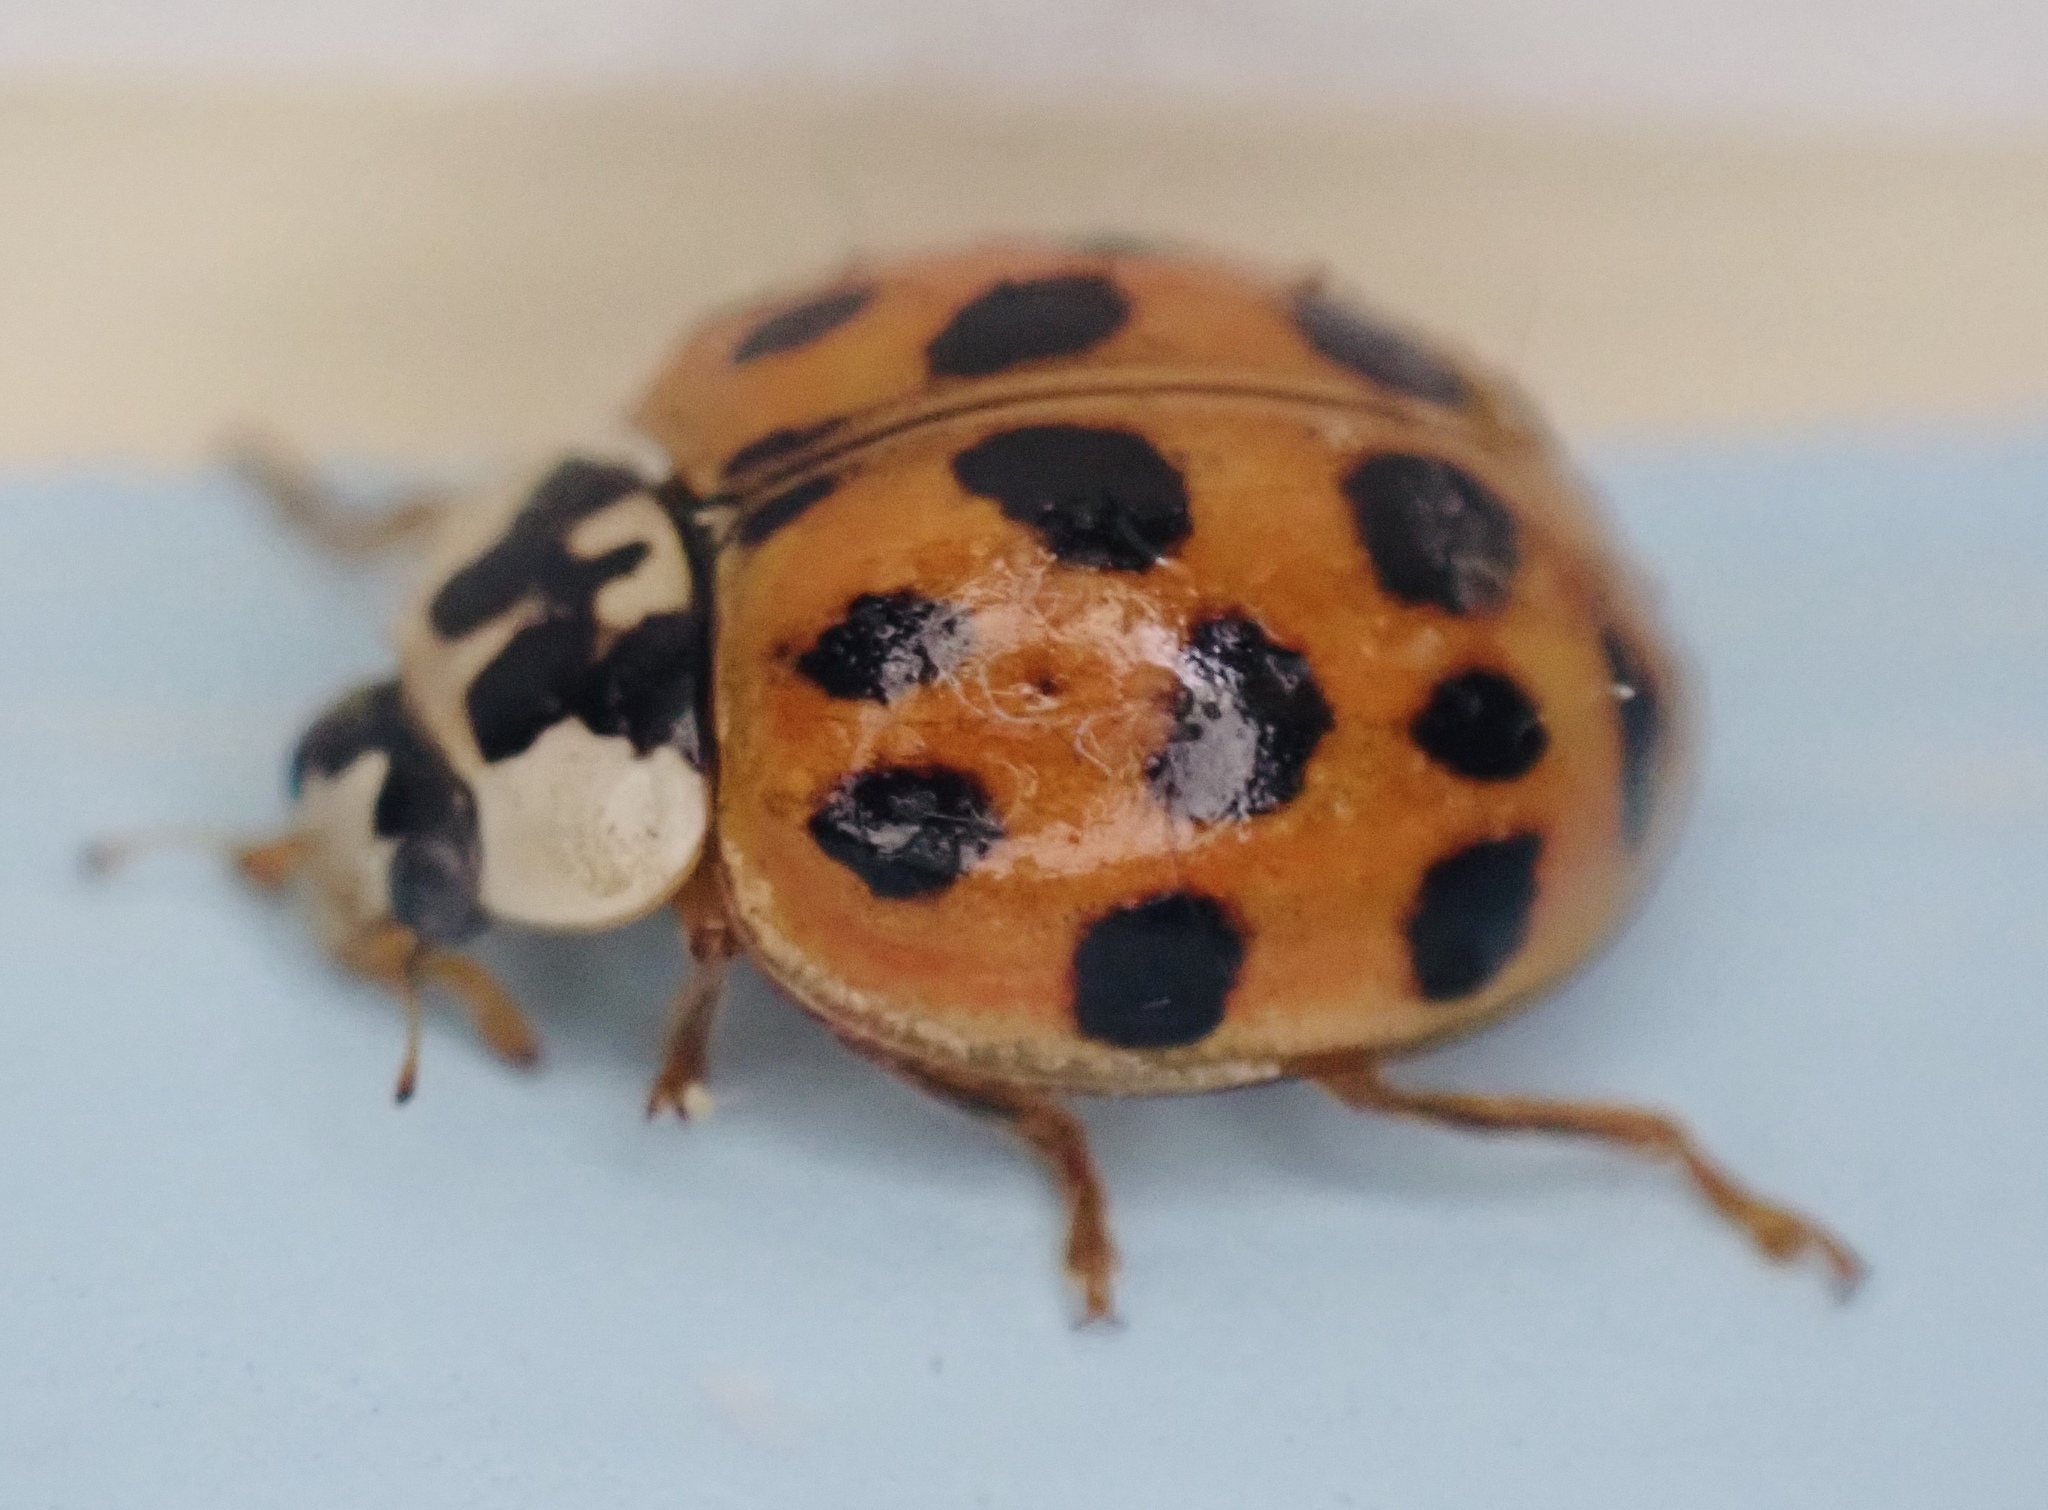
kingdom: Animalia
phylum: Arthropoda
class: Insecta
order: Coleoptera
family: Coccinellidae
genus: Harmonia
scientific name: Harmonia axyridis
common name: Harlequin ladybird
